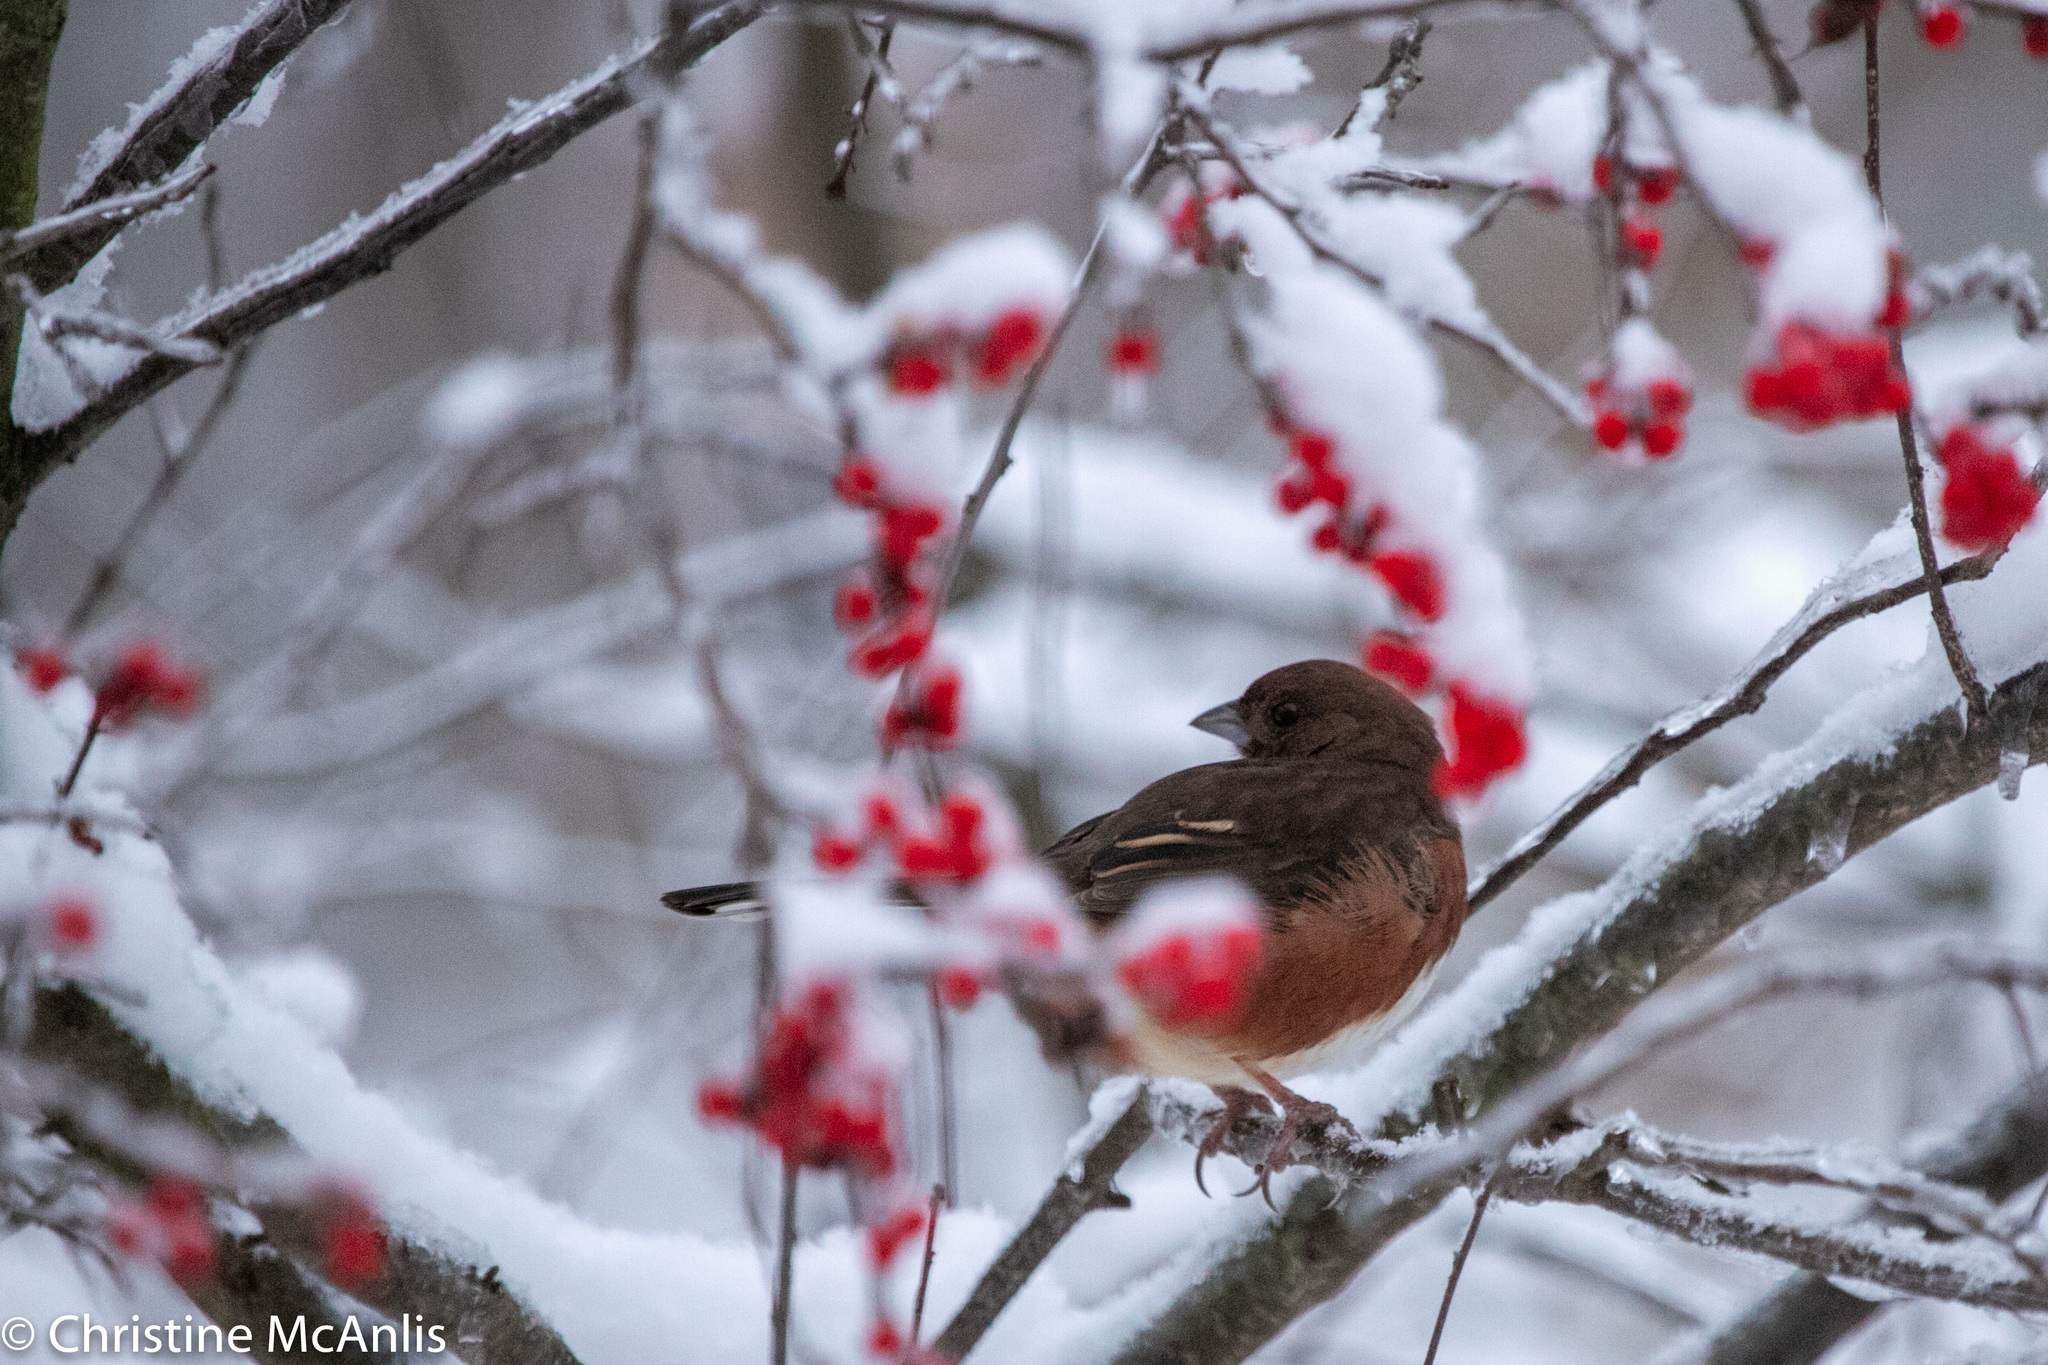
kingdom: Animalia
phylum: Chordata
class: Aves
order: Passeriformes
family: Passerellidae
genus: Pipilo
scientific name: Pipilo erythrophthalmus
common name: Eastern towhee
